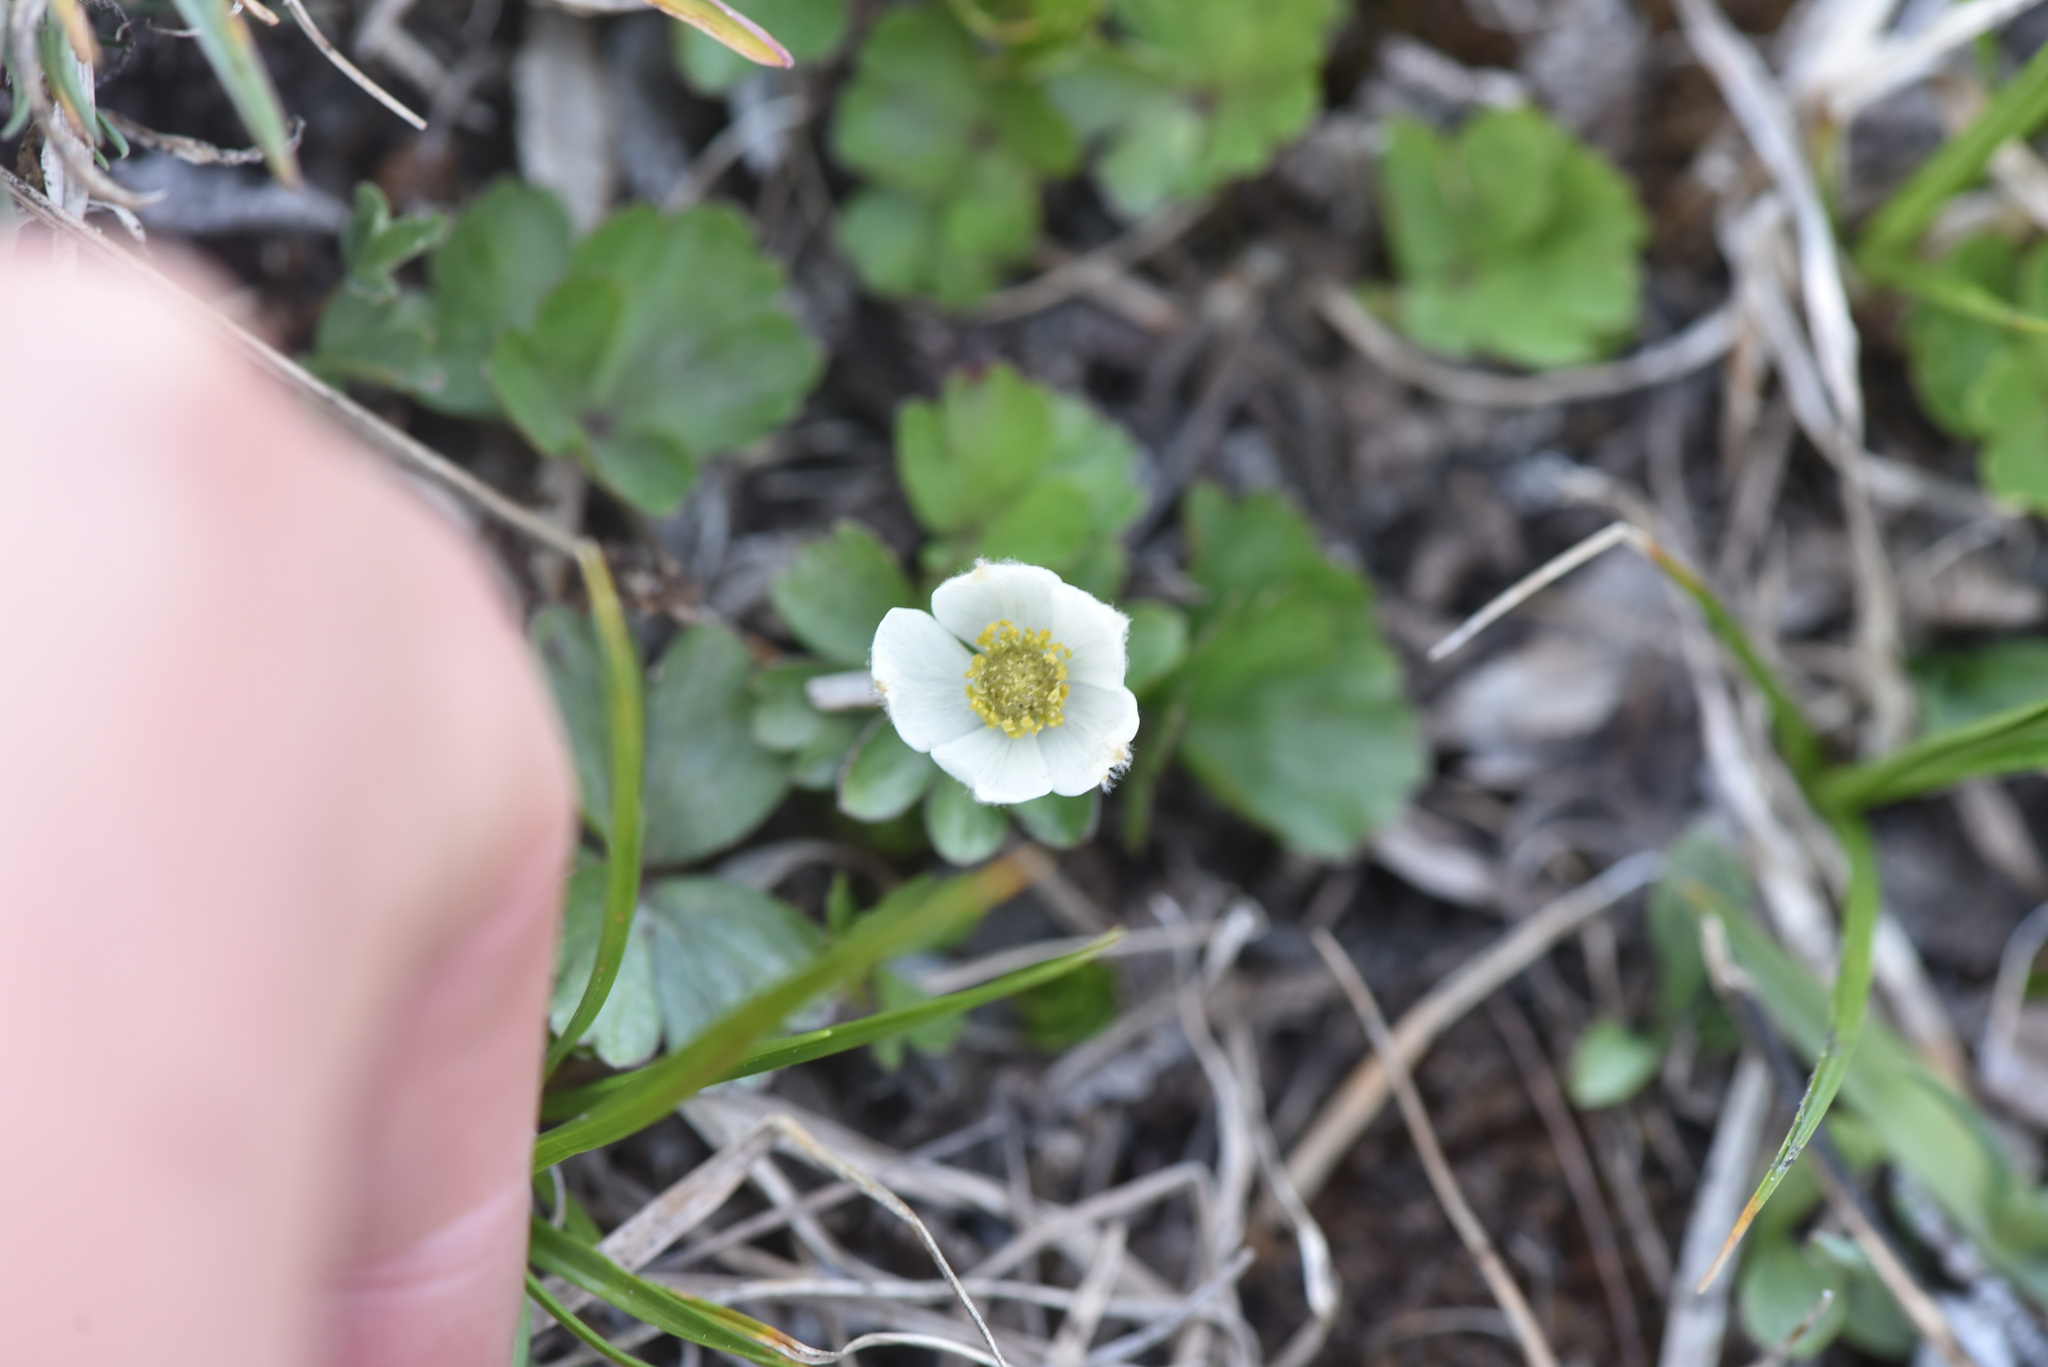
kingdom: Plantae
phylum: Tracheophyta
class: Magnoliopsida
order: Ranunculales
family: Ranunculaceae
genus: Anemone
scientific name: Anemone parviflora
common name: Northern anemone
